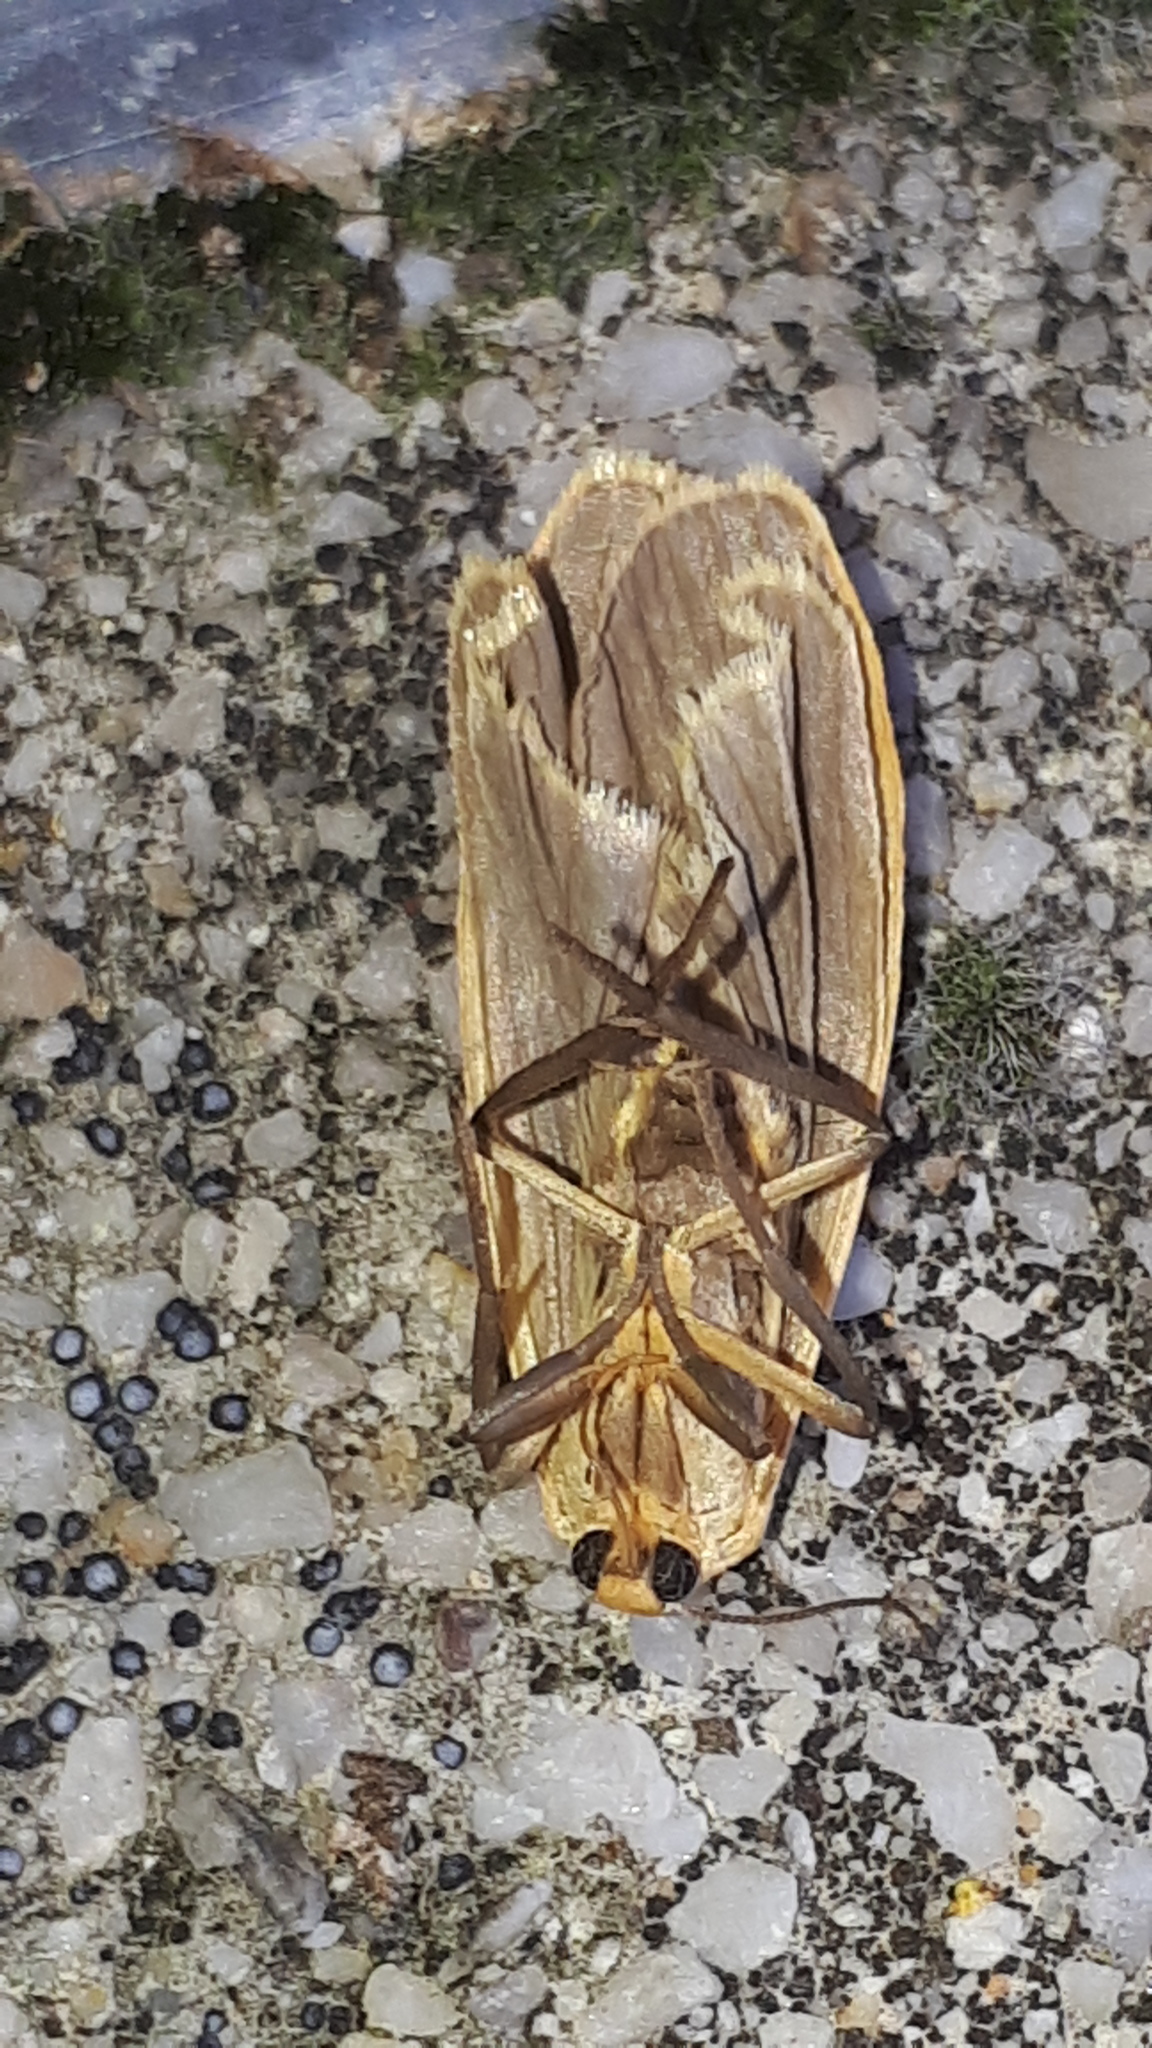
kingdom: Animalia
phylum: Arthropoda
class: Insecta
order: Lepidoptera
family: Erebidae
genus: Collita
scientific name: Collita griseola
